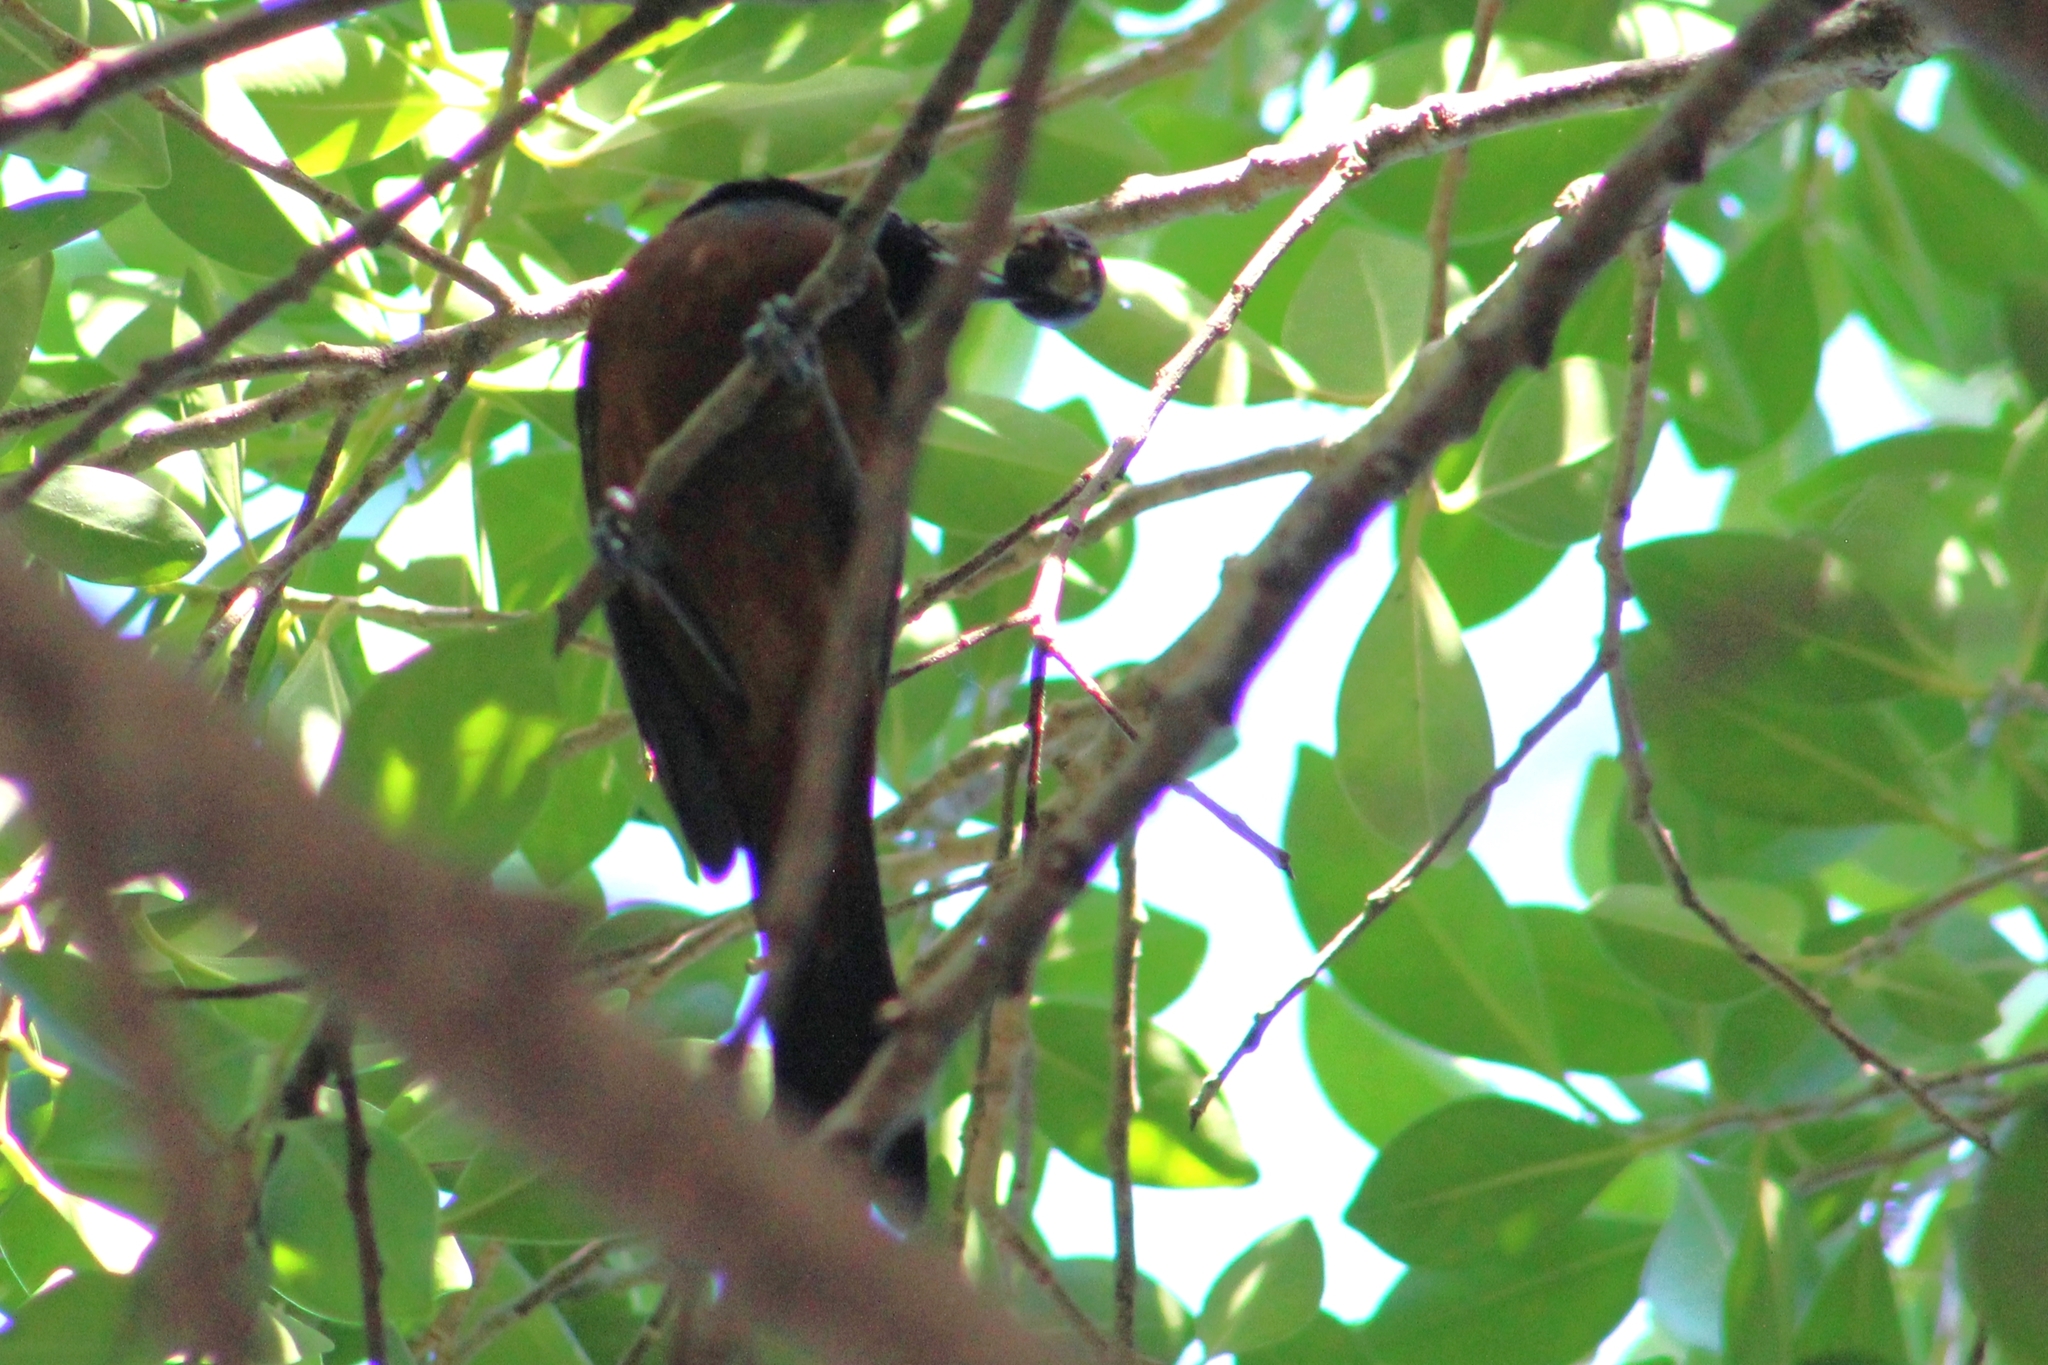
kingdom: Animalia
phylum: Chordata
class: Aves
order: Passeriformes
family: Icteridae
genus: Icterus
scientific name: Icterus spurius
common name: Orchard oriole
